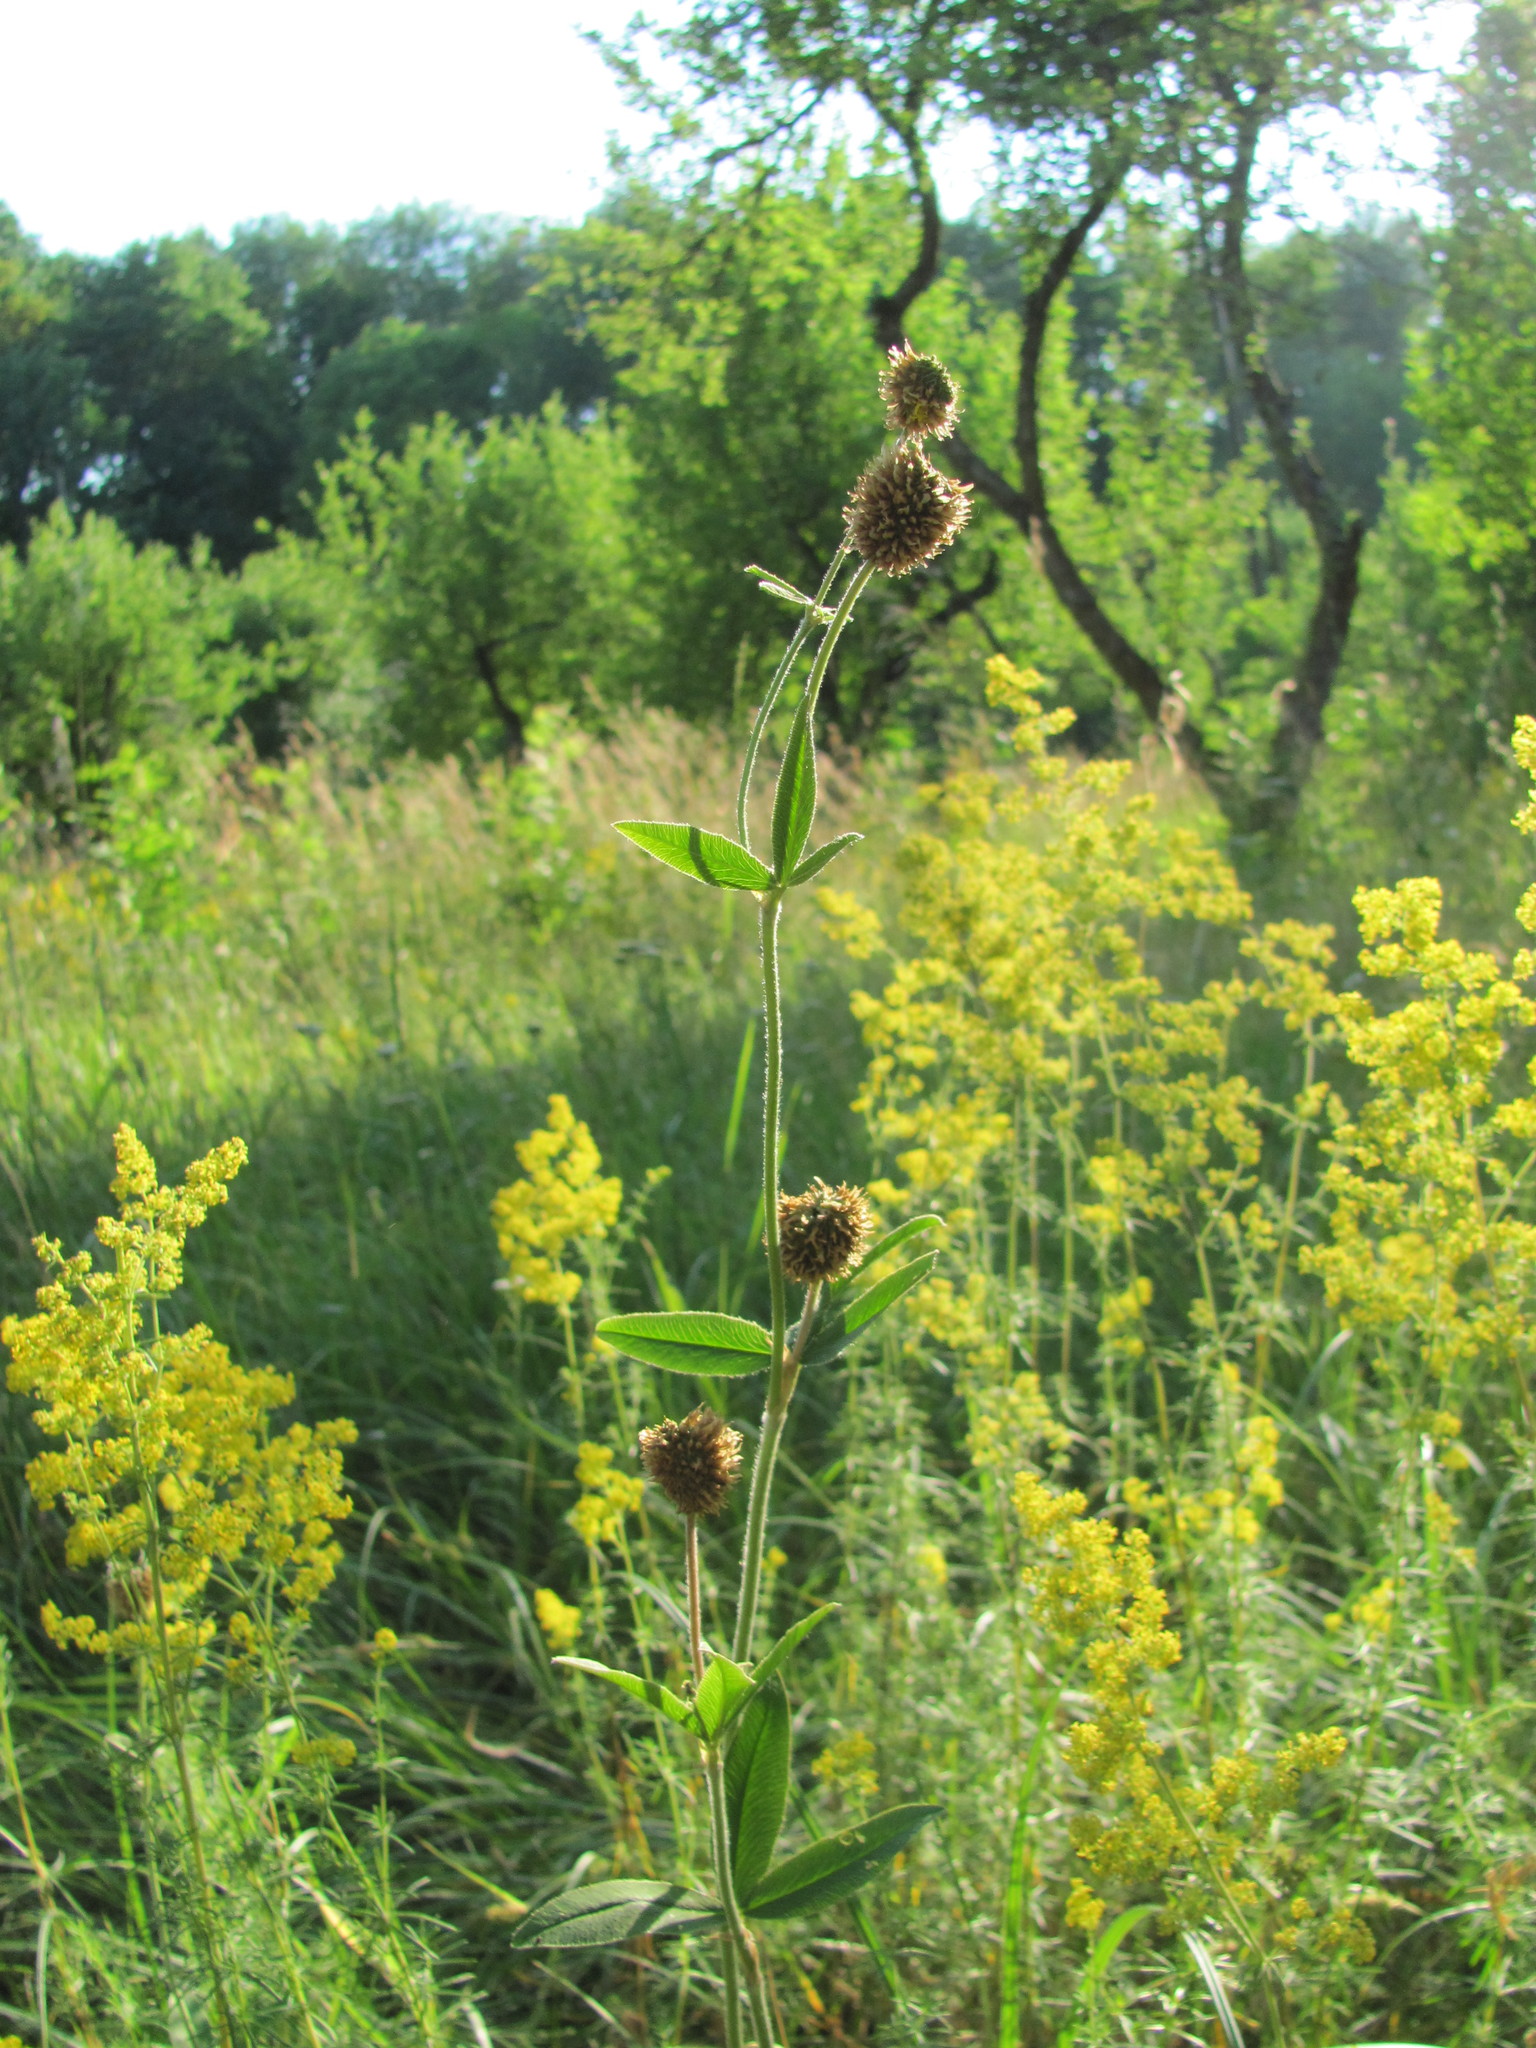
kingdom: Plantae
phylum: Tracheophyta
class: Magnoliopsida
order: Fabales
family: Fabaceae
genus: Trifolium
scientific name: Trifolium montanum
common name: Mountain clover
